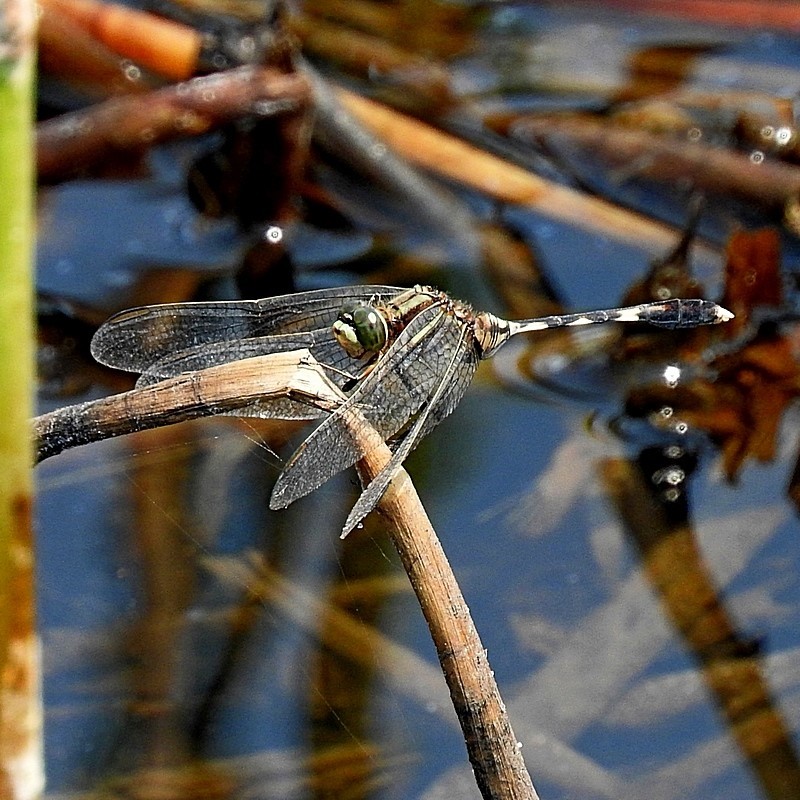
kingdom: Animalia
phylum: Arthropoda
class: Insecta
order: Odonata
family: Libellulidae
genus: Orthetrum
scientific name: Orthetrum sabina
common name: Slender skimmer
